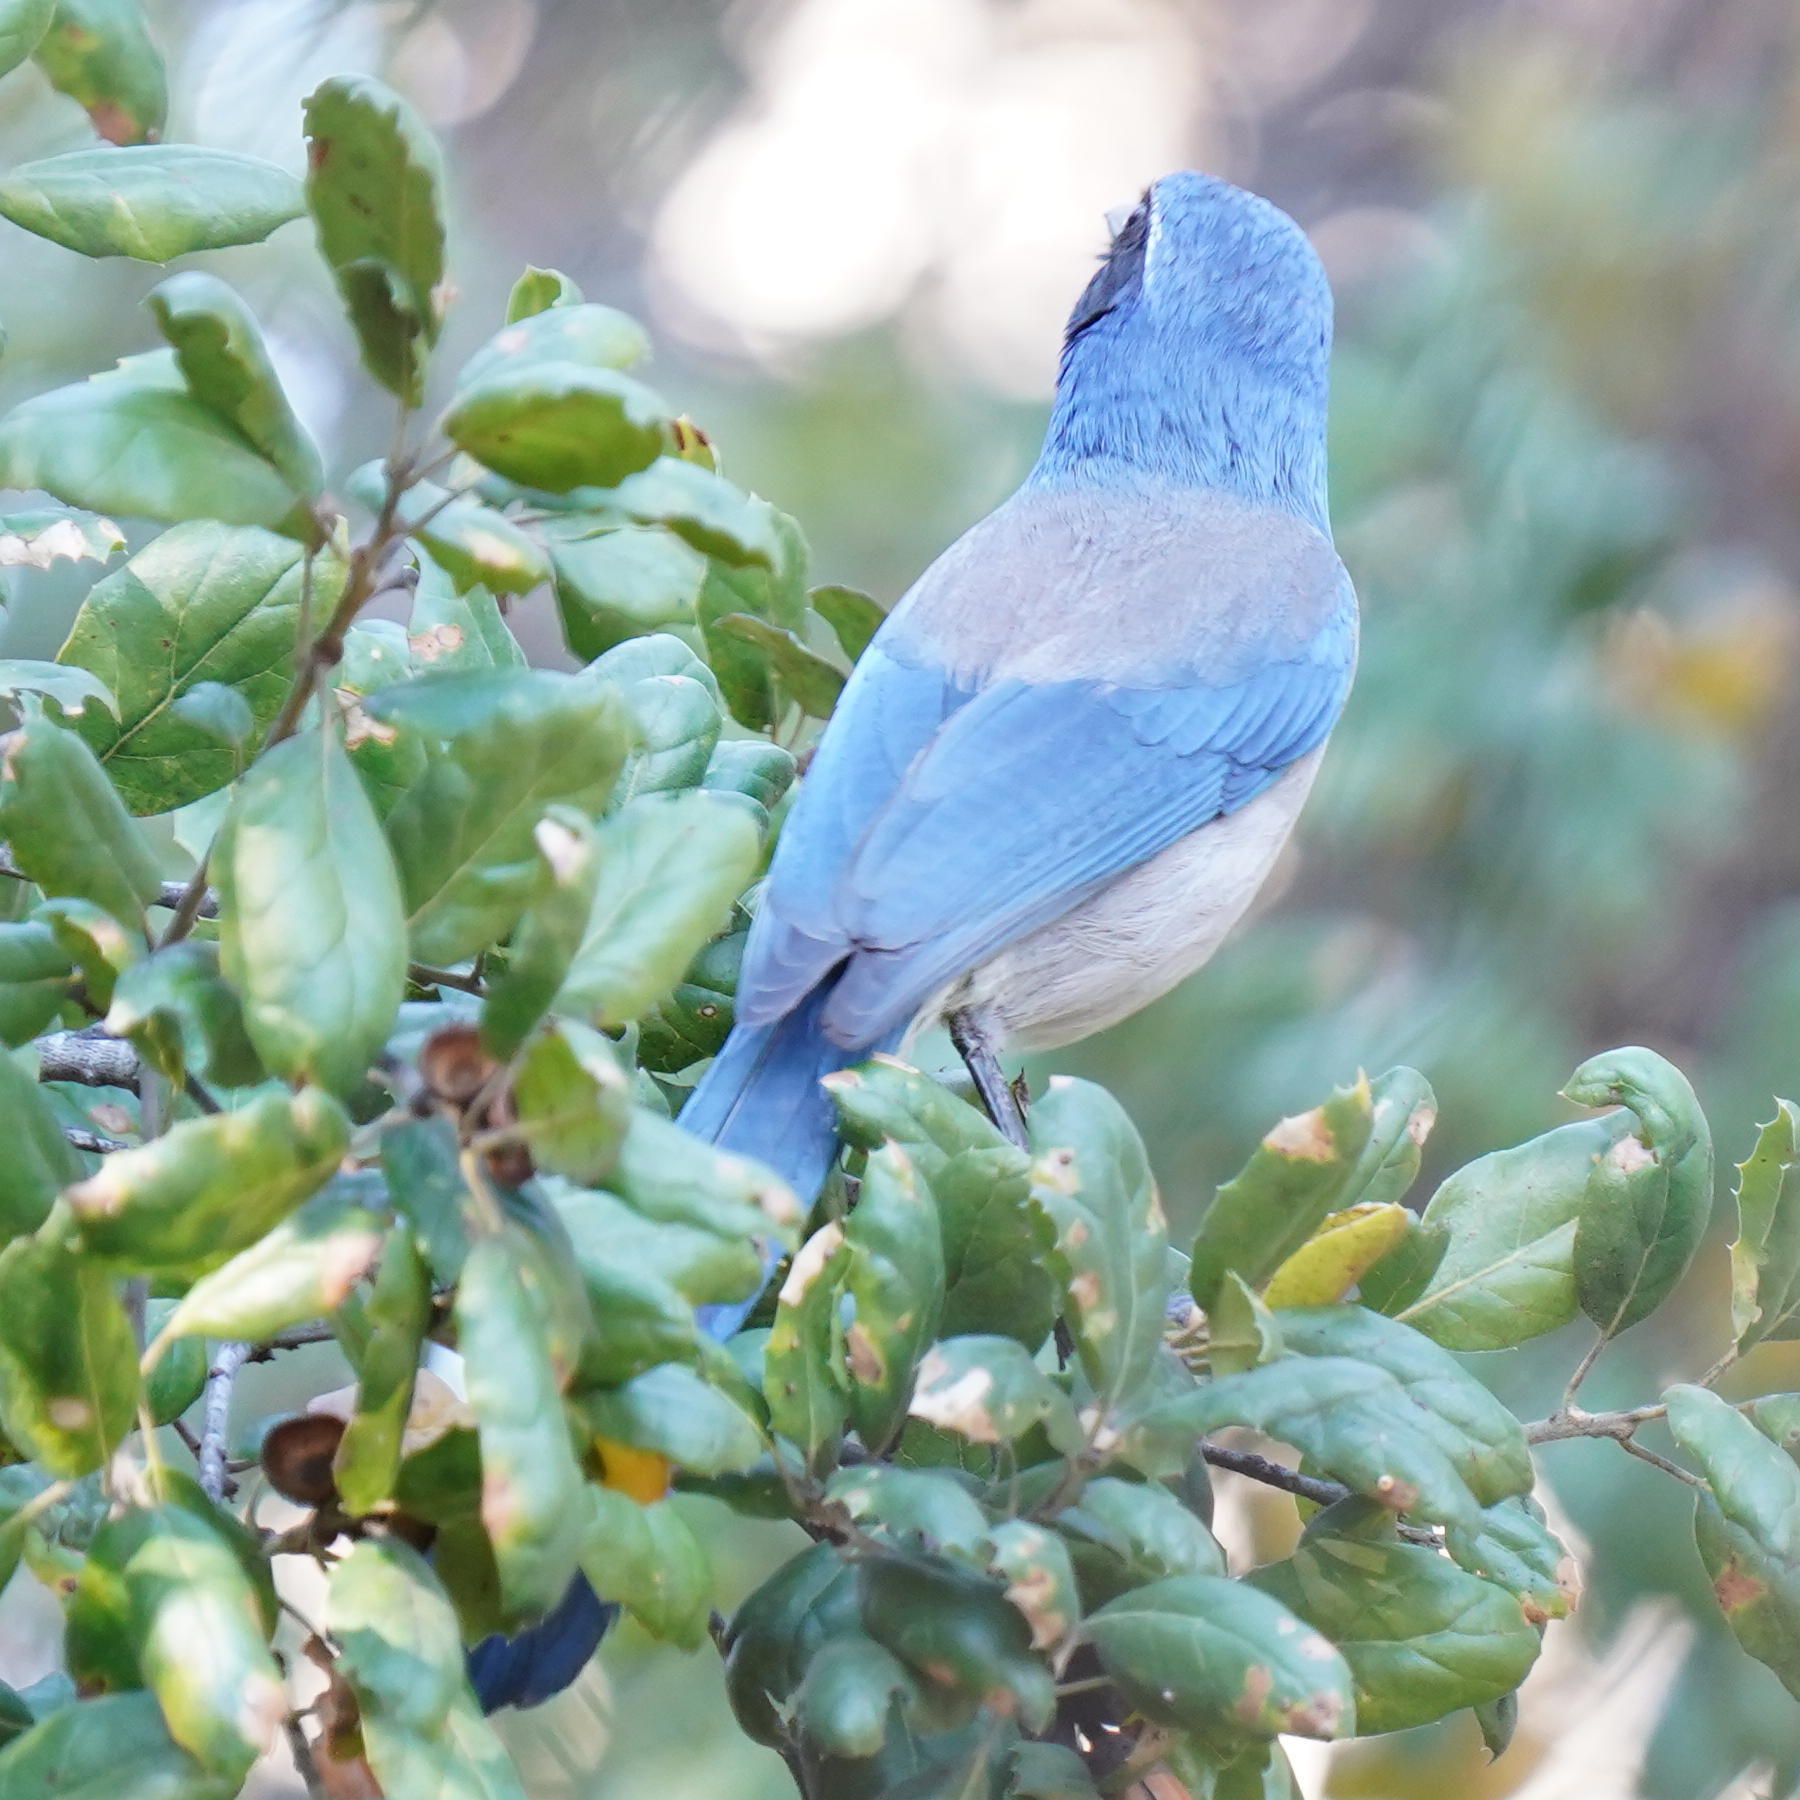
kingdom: Animalia
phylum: Chordata
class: Aves
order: Passeriformes
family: Corvidae
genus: Aphelocoma
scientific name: Aphelocoma californica
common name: California scrub-jay
